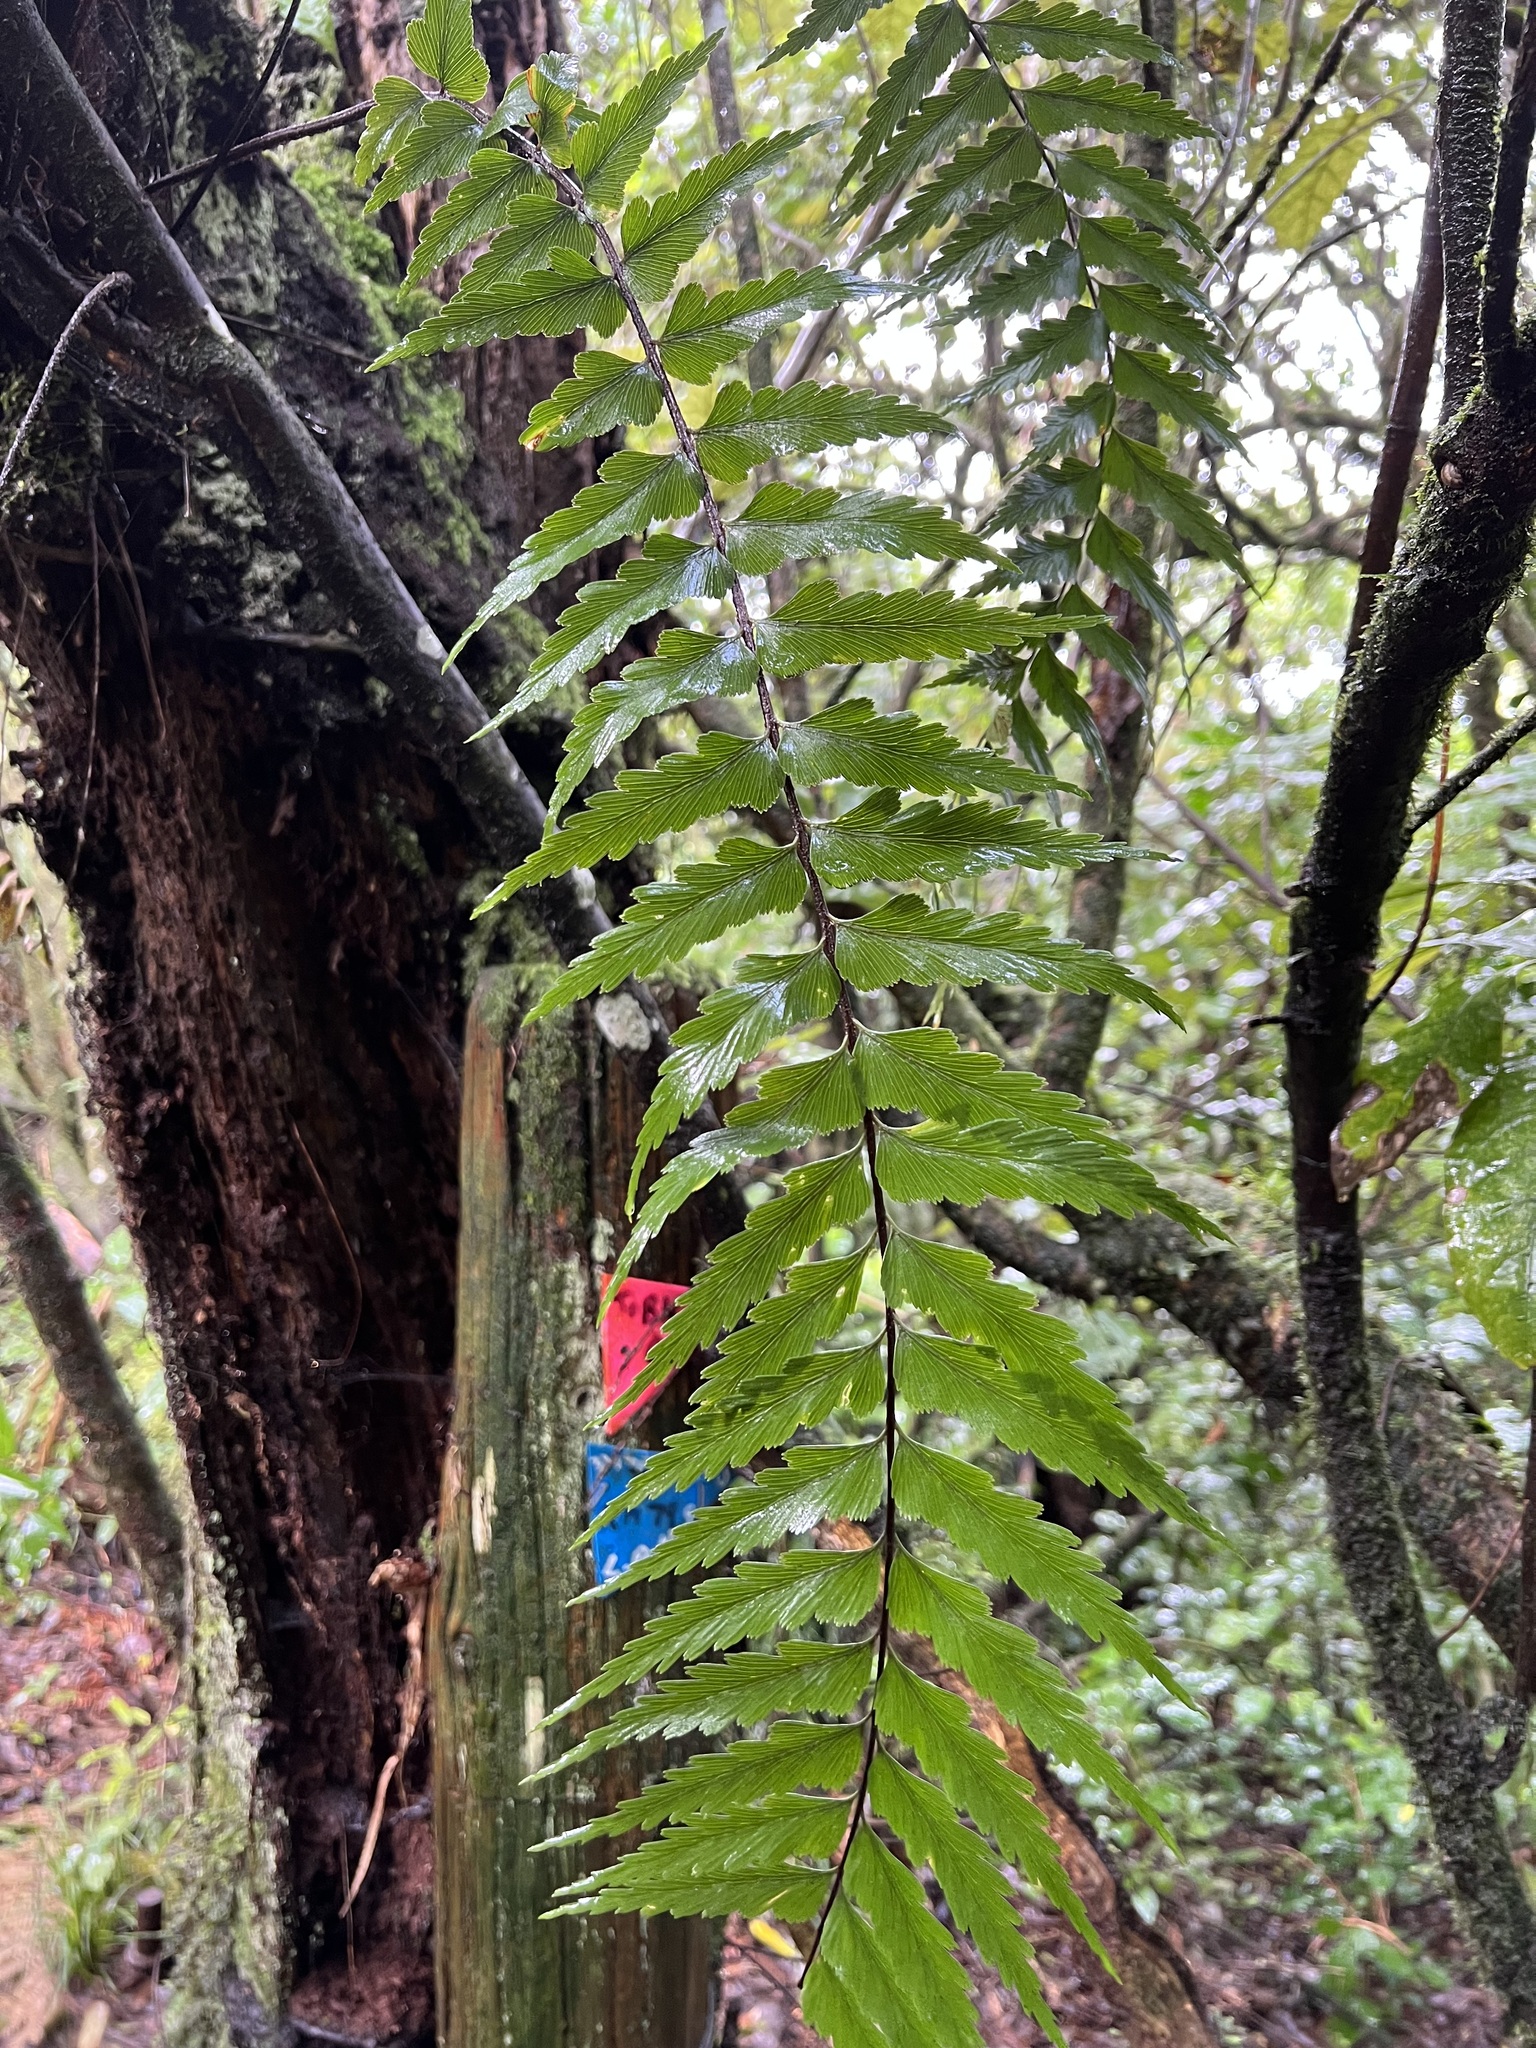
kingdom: Plantae
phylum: Tracheophyta
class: Polypodiopsida
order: Polypodiales
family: Aspleniaceae
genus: Asplenium
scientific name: Asplenium polyodon
